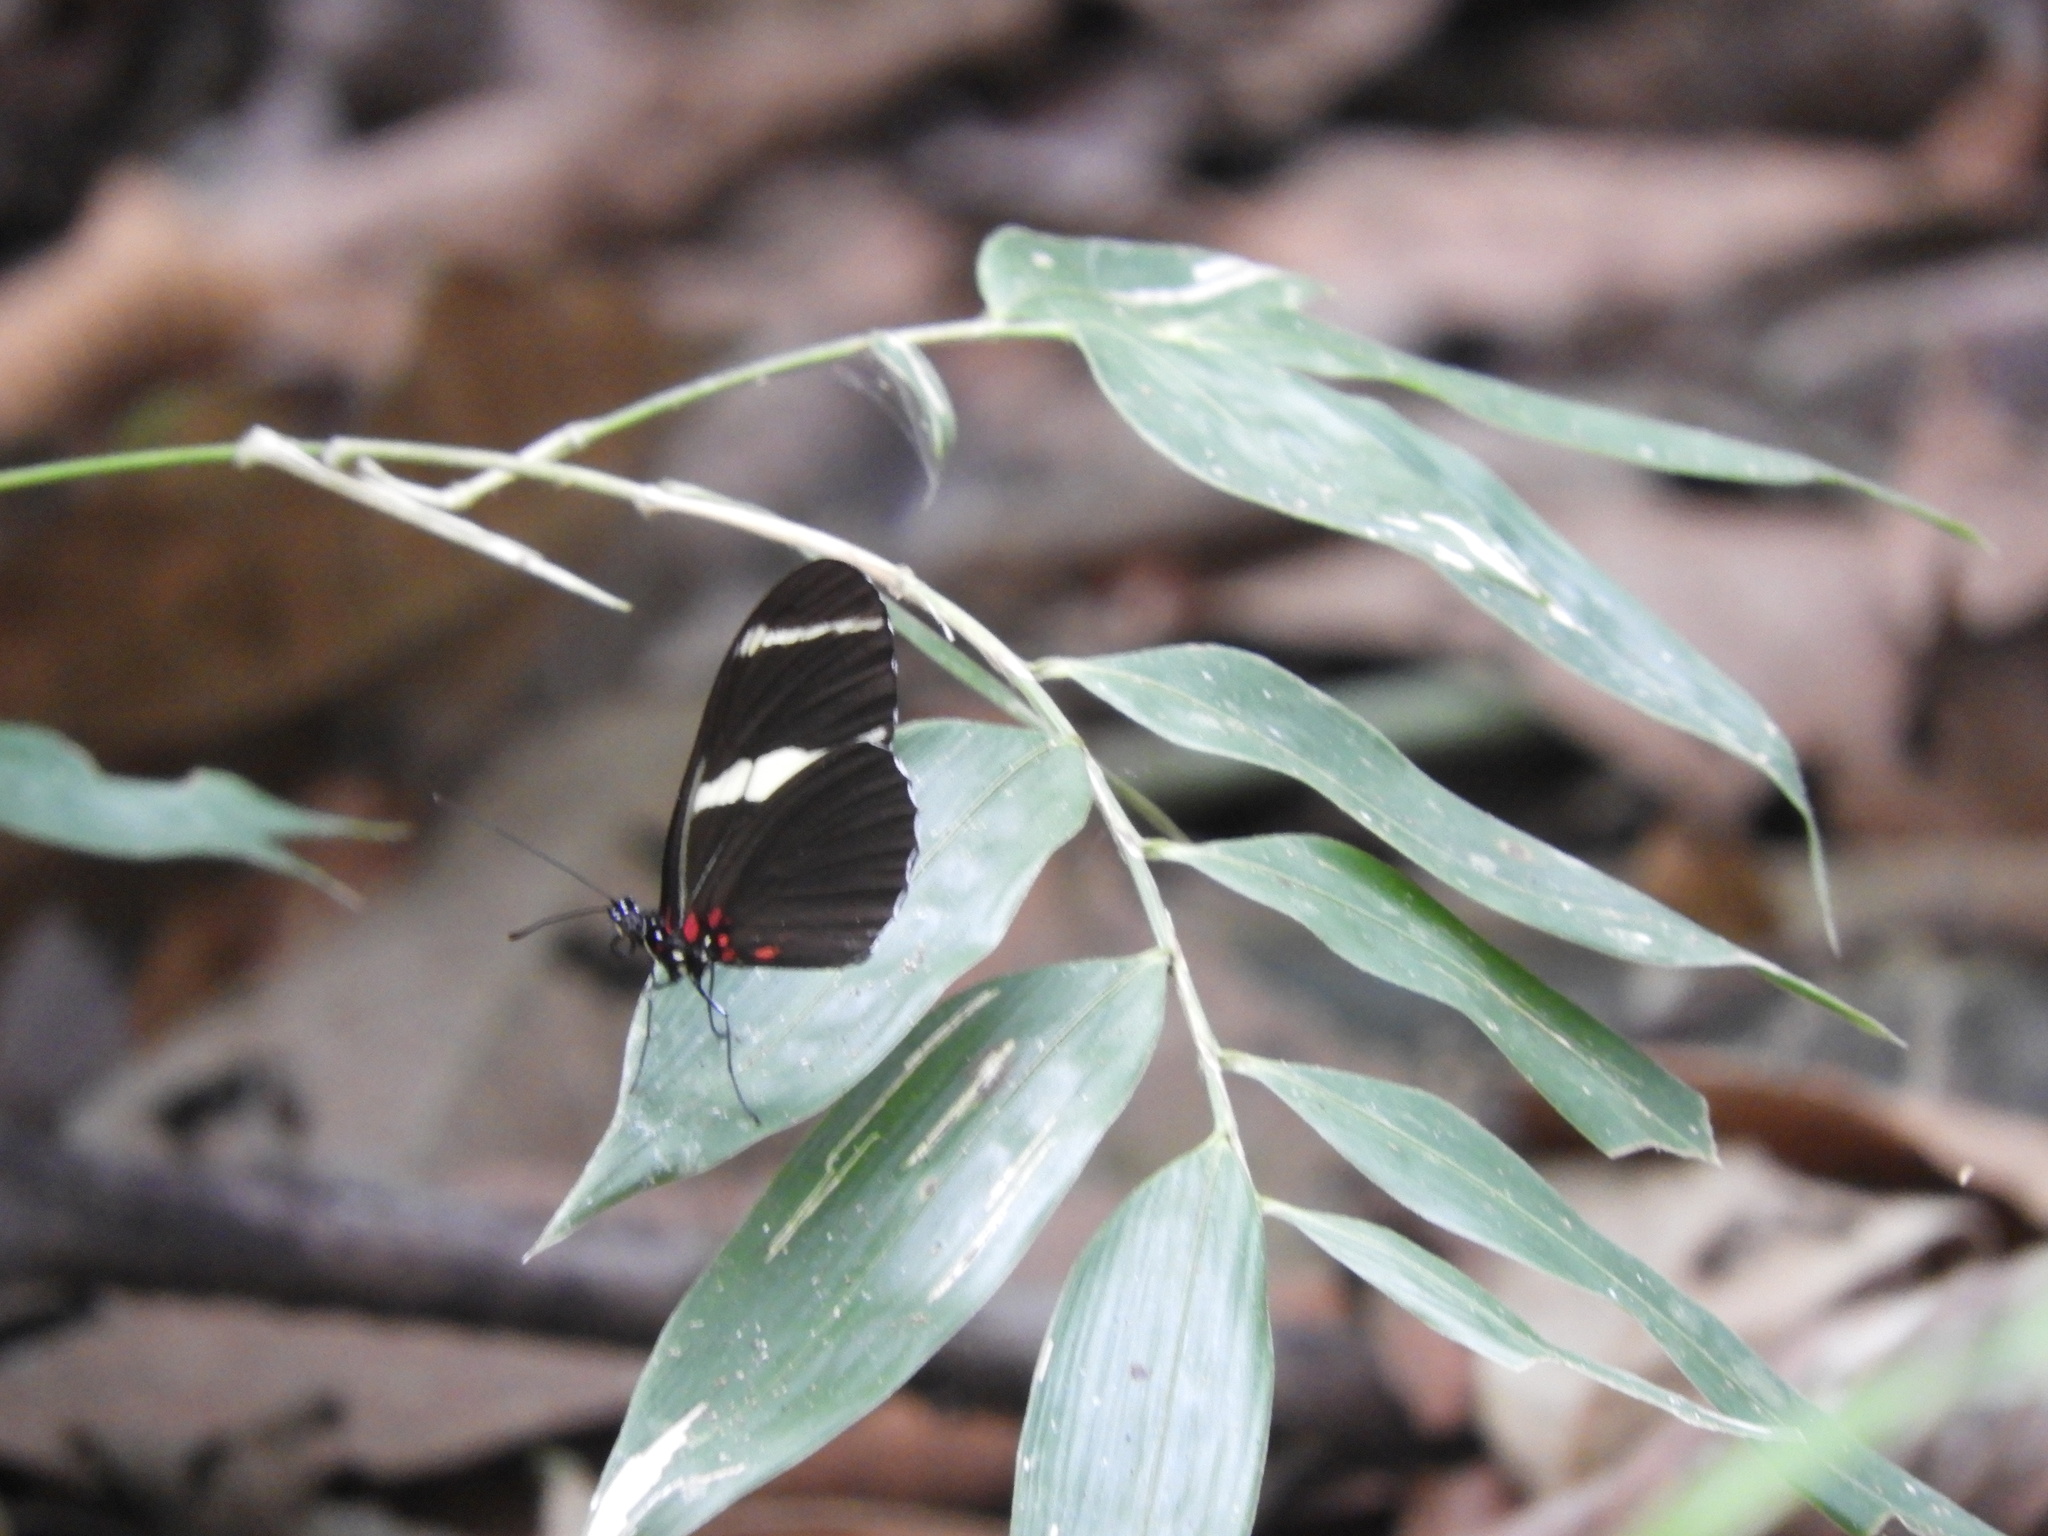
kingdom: Animalia
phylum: Arthropoda
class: Insecta
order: Lepidoptera
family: Nymphalidae
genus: Heliconius
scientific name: Heliconius sara
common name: Sara longwing
